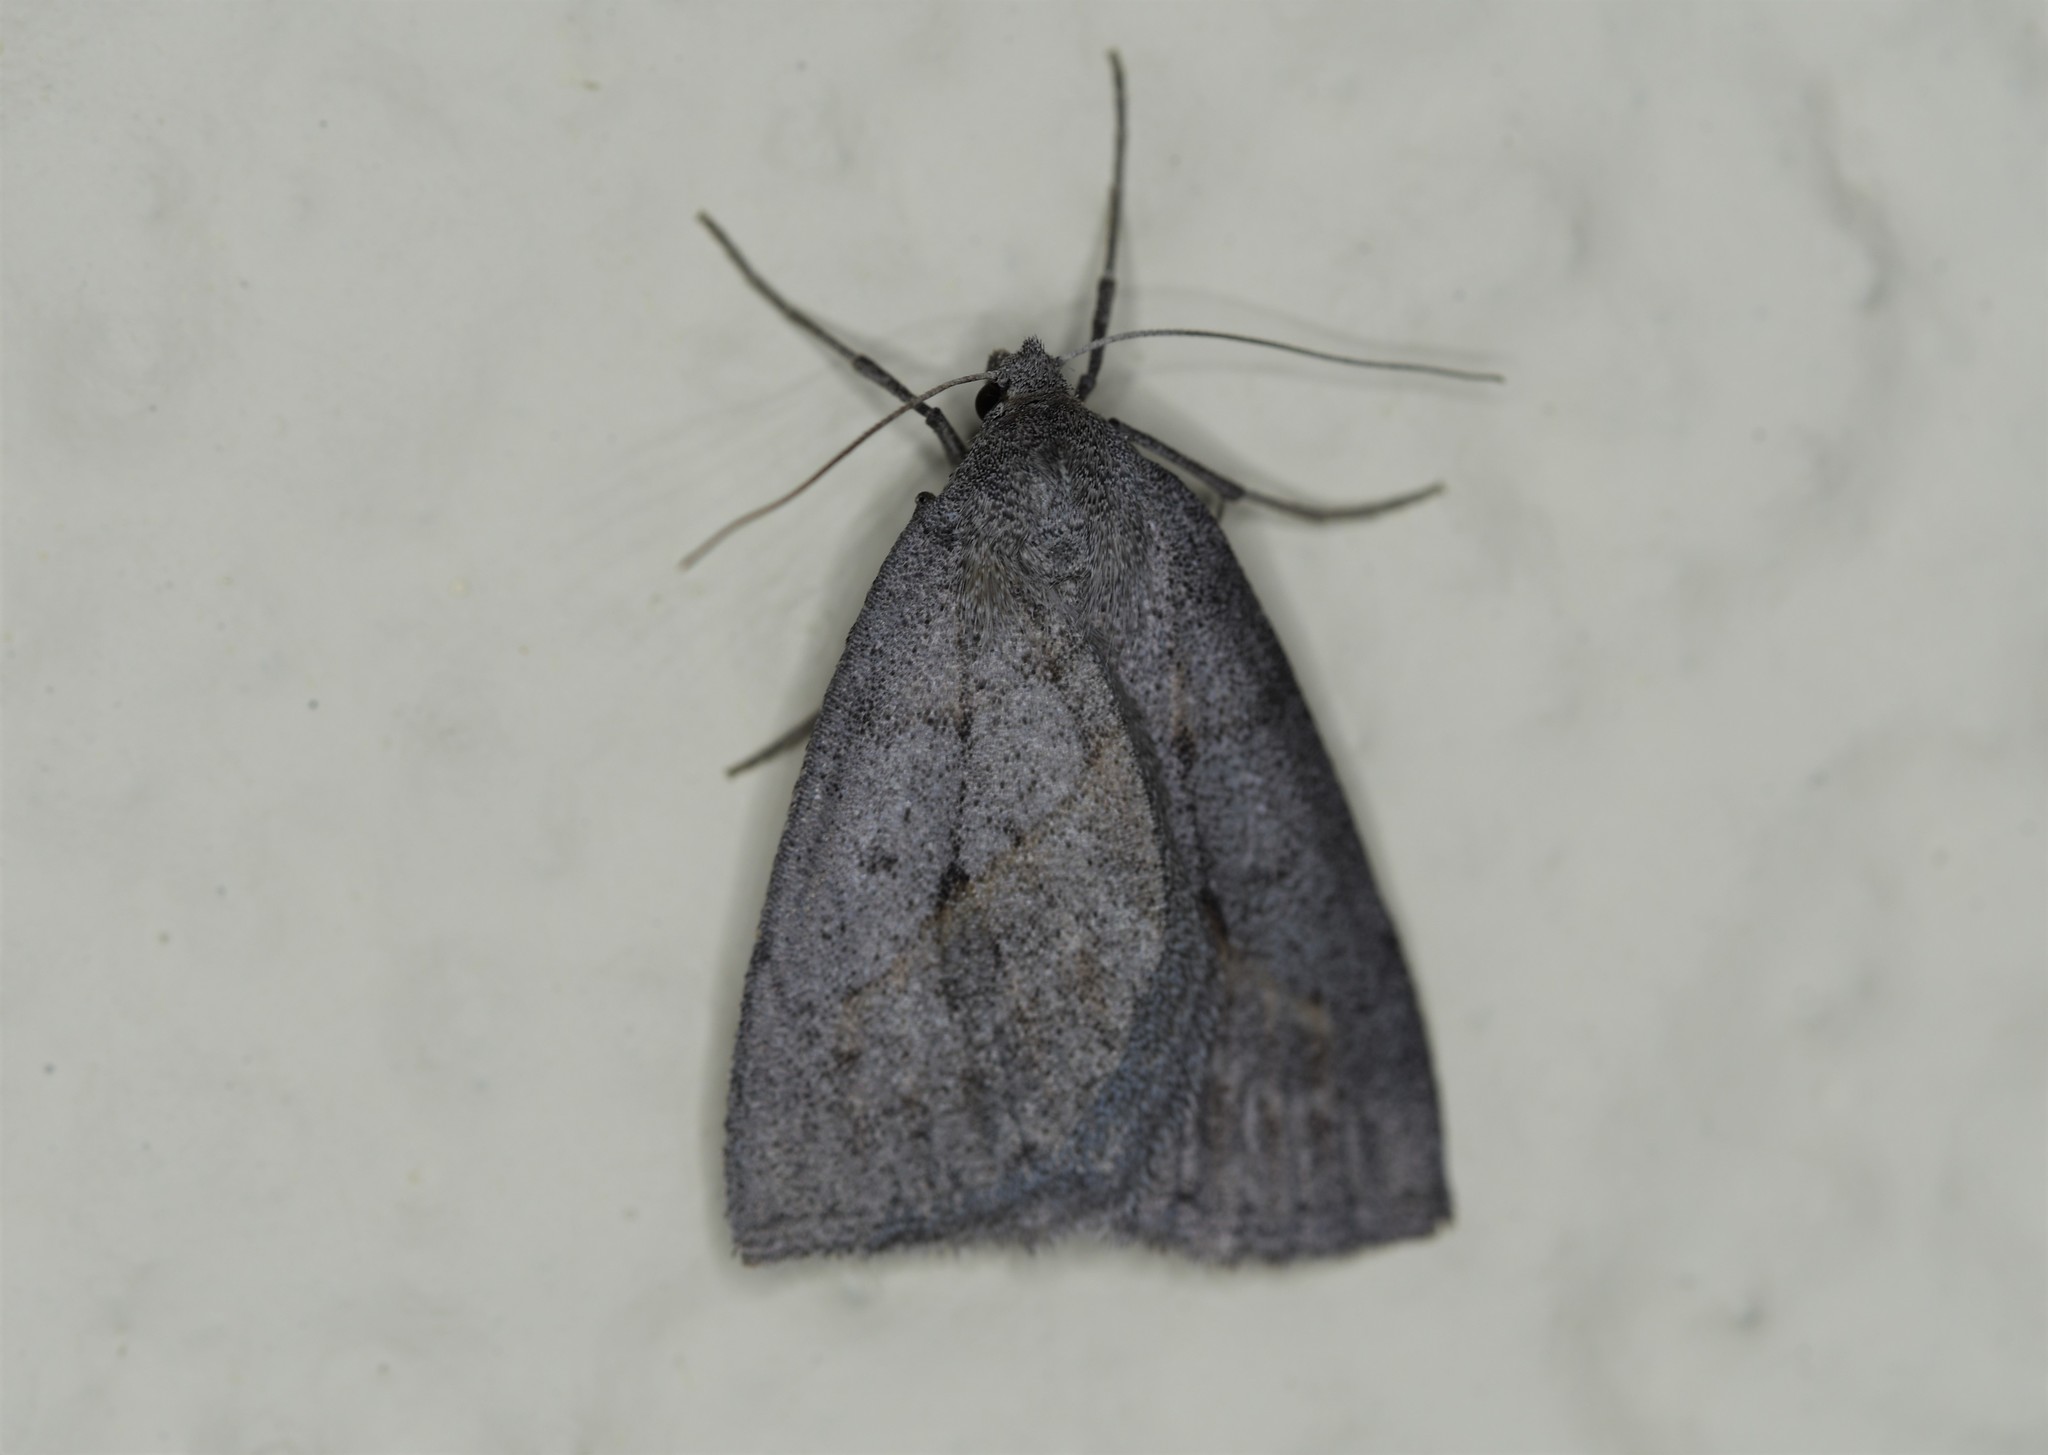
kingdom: Animalia
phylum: Arthropoda
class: Insecta
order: Lepidoptera
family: Geometridae
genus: Chemerina
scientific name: Chemerina caliginearia
